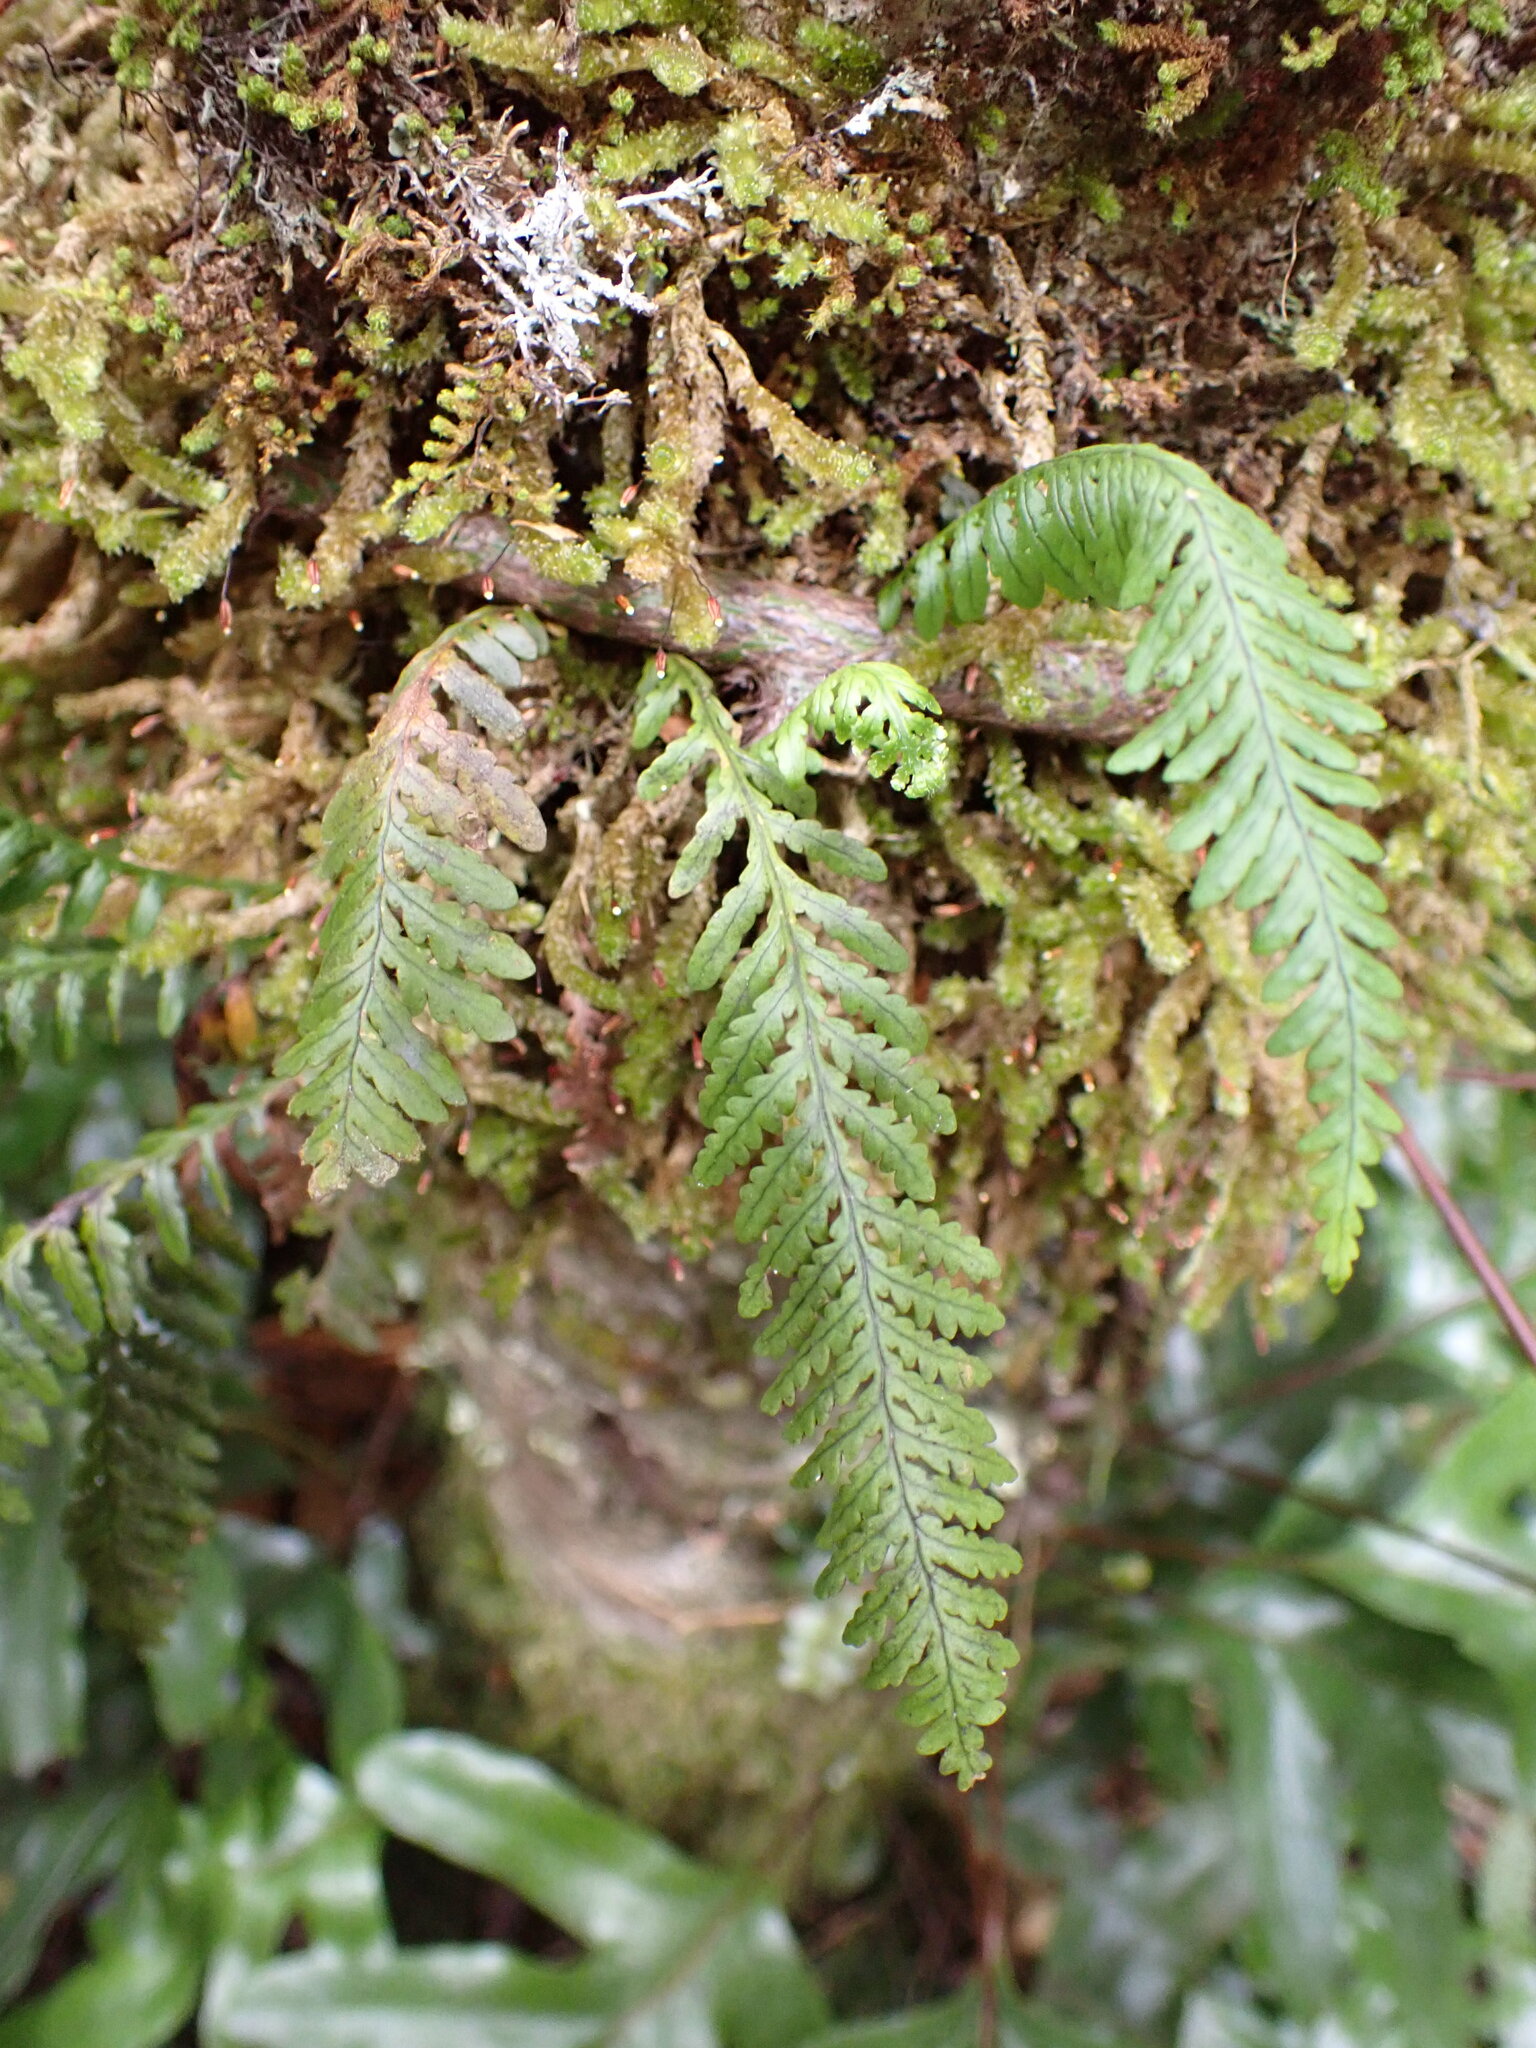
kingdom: Plantae
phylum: Tracheophyta
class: Polypodiopsida
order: Polypodiales
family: Polypodiaceae
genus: Notogrammitis
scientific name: Notogrammitis heterophylla
